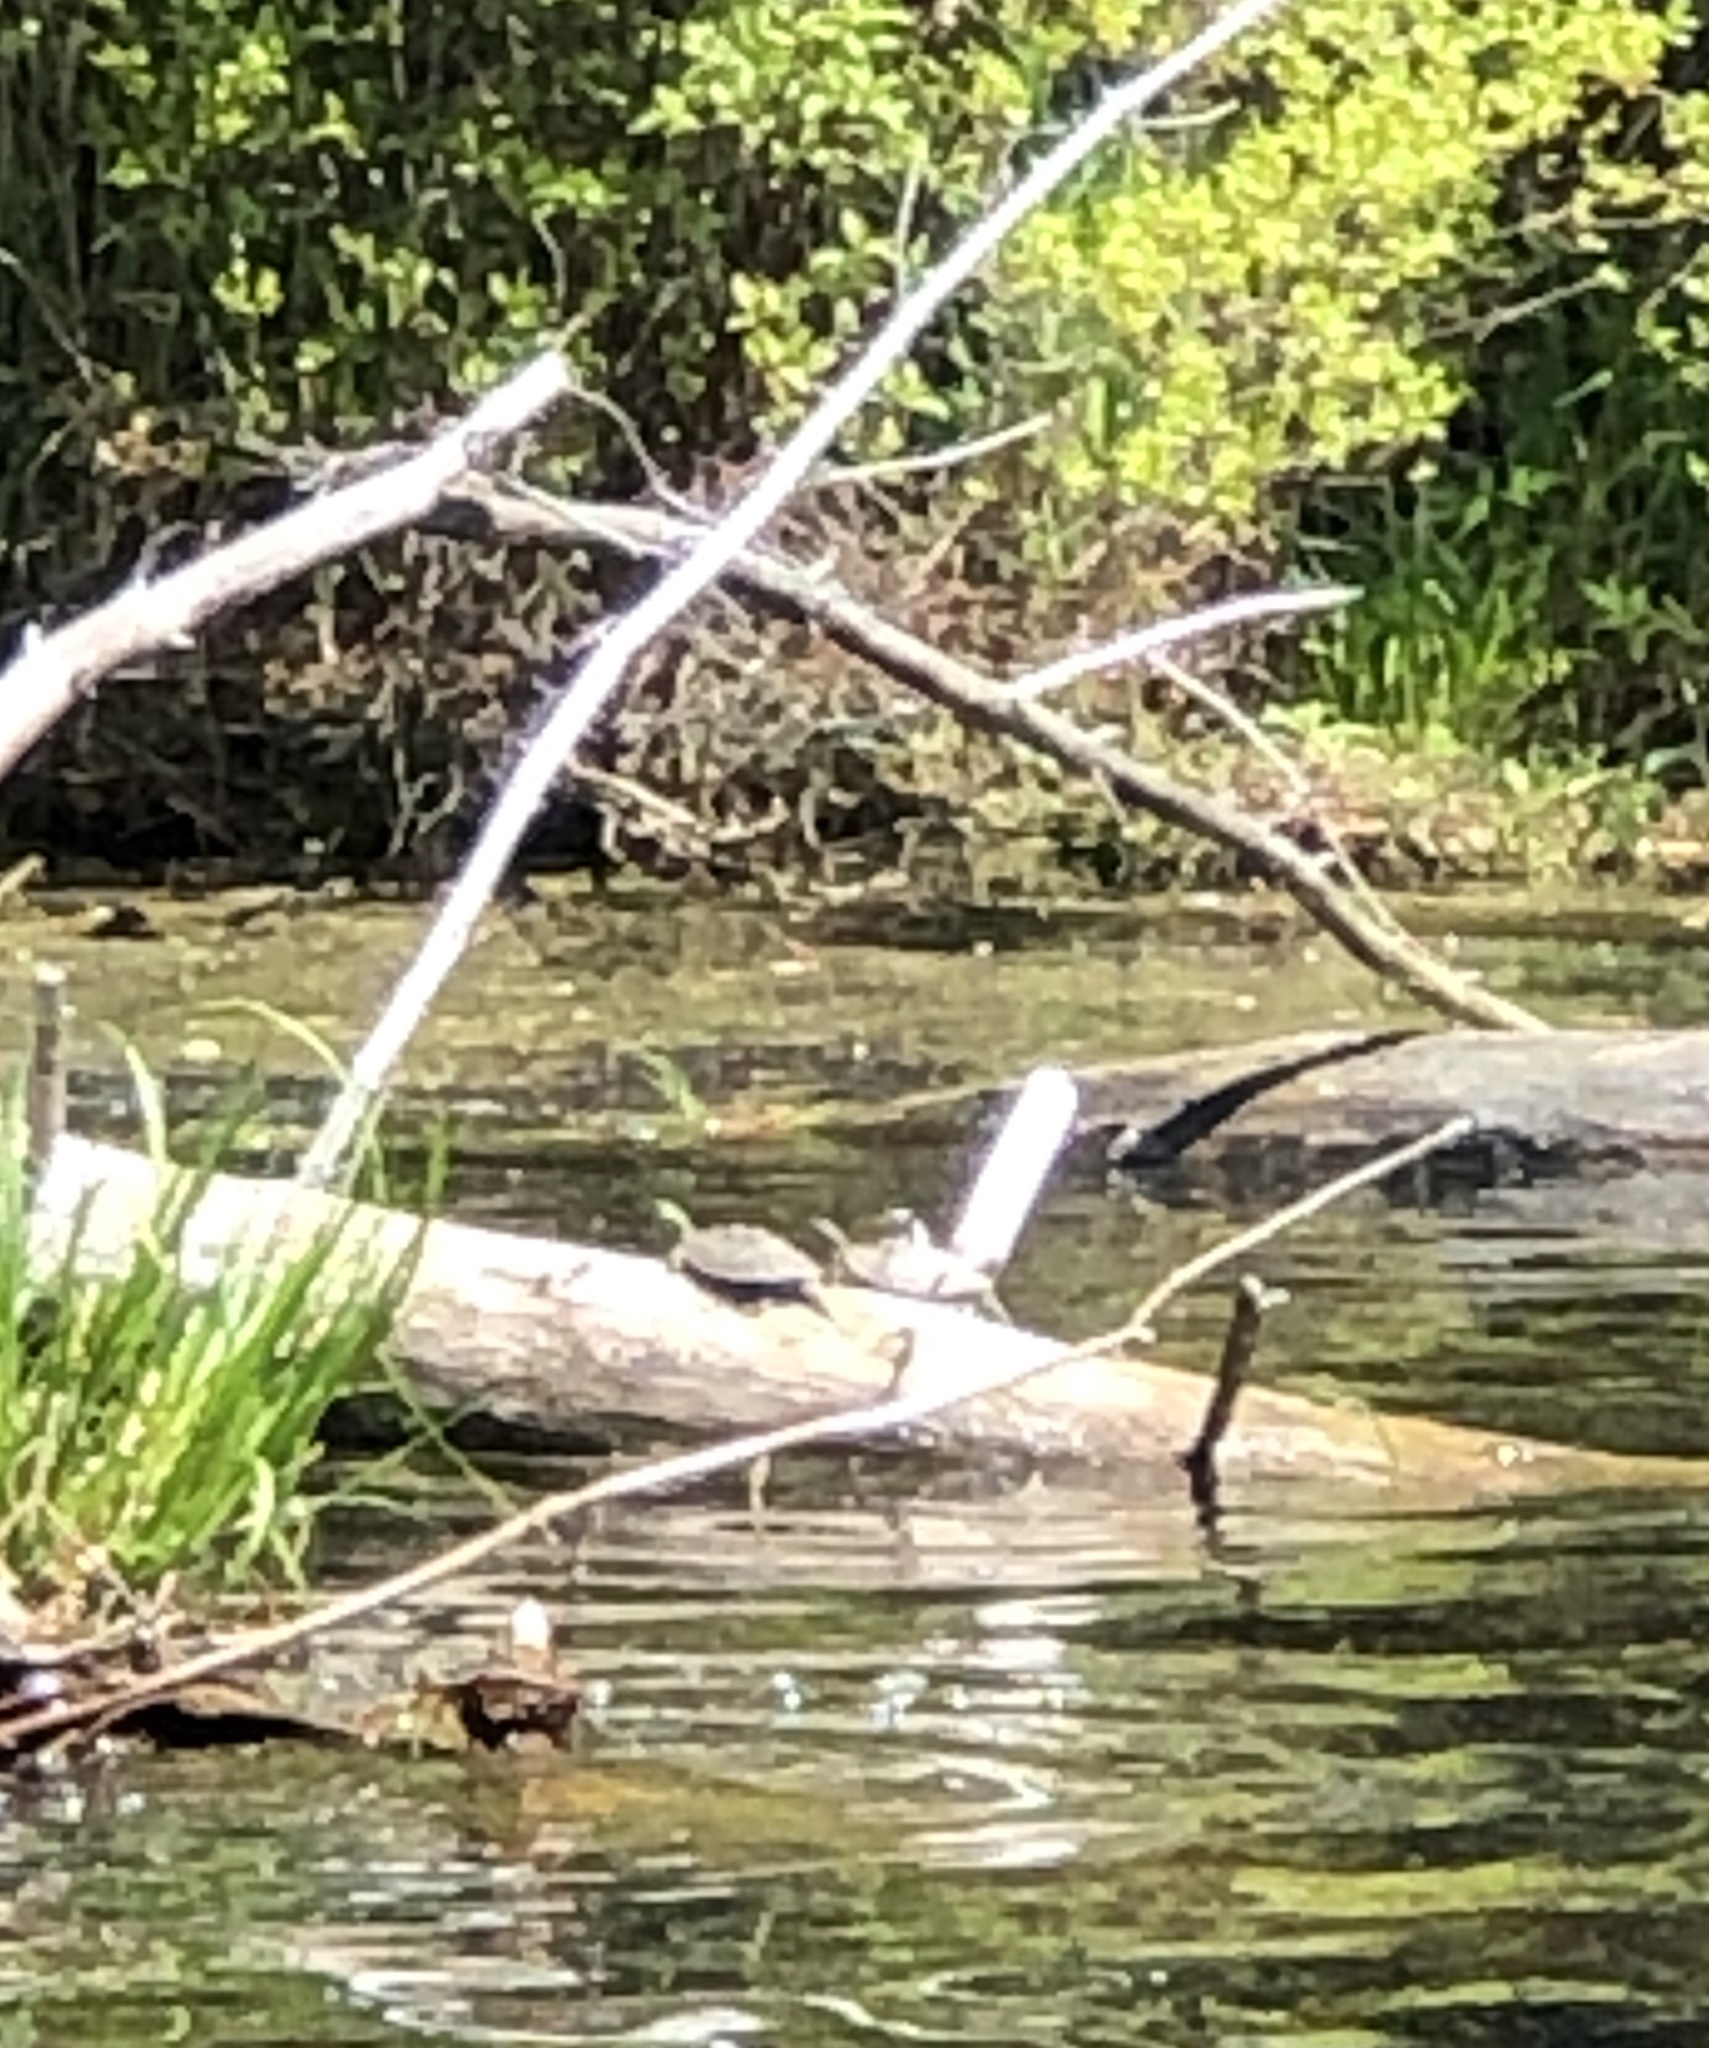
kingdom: Animalia
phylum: Chordata
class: Testudines
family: Emydidae
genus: Graptemys
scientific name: Graptemys geographica
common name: Common map turtle
